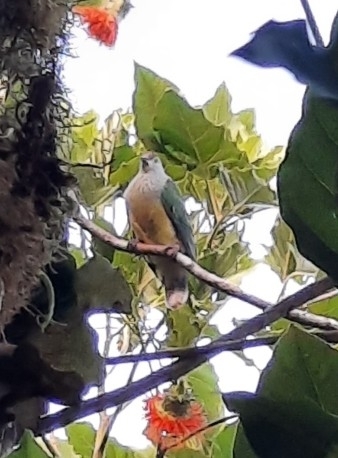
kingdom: Animalia
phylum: Chordata
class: Aves
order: Columbiformes
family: Columbidae
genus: Ptilinopus
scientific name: Ptilinopus rarotongensis
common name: Lilac-crowned fruit dove
